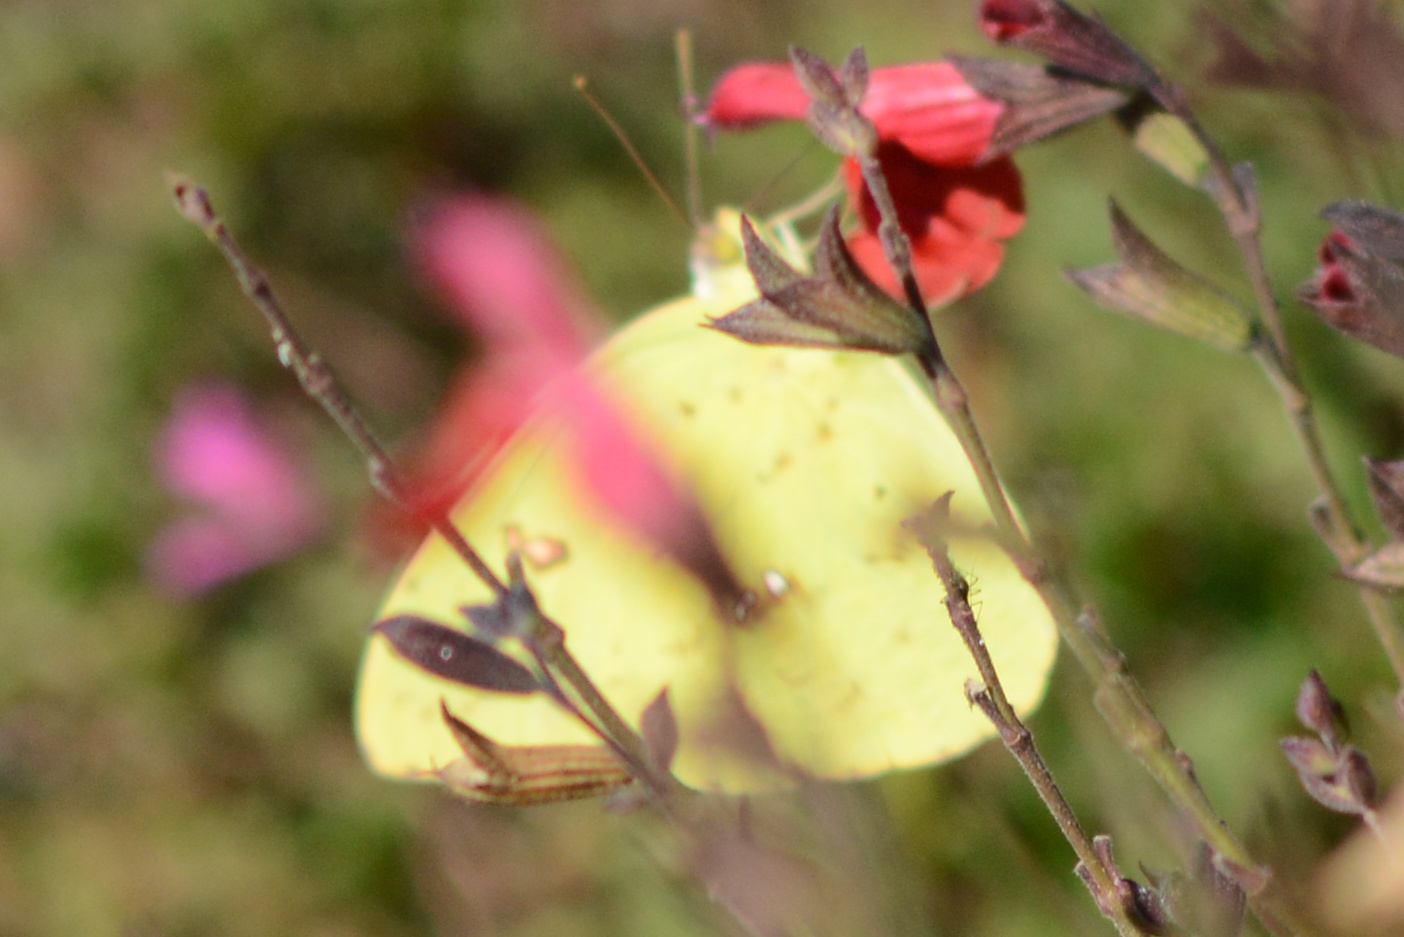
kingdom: Animalia
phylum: Arthropoda
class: Insecta
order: Lepidoptera
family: Pieridae
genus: Phoebis
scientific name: Phoebis sennae
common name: Cloudless sulphur
